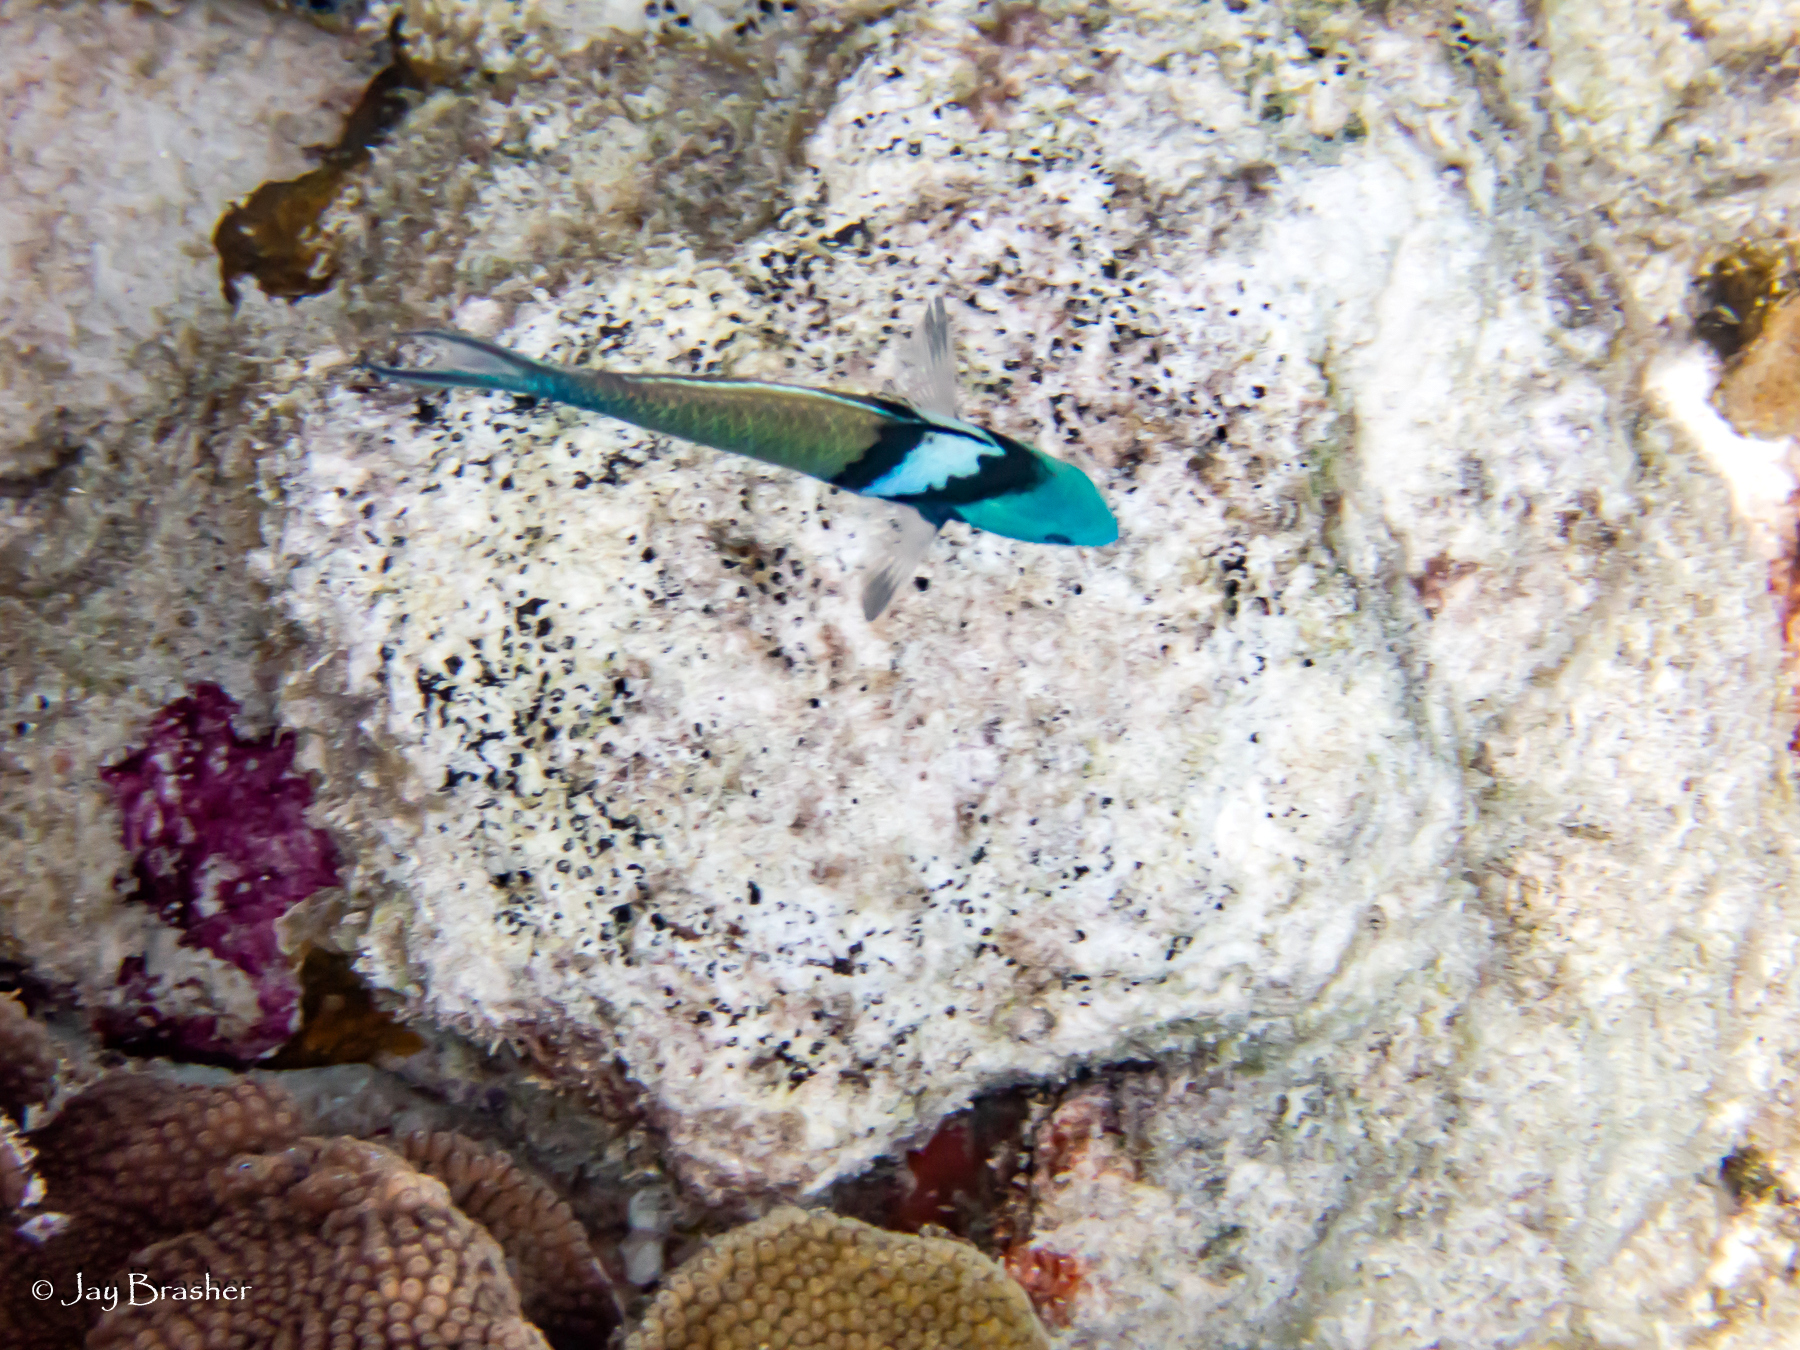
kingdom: Animalia
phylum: Porifera
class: Demospongiae
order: Clionaida
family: Clionaidae
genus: Cliona
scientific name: Cliona aprica
